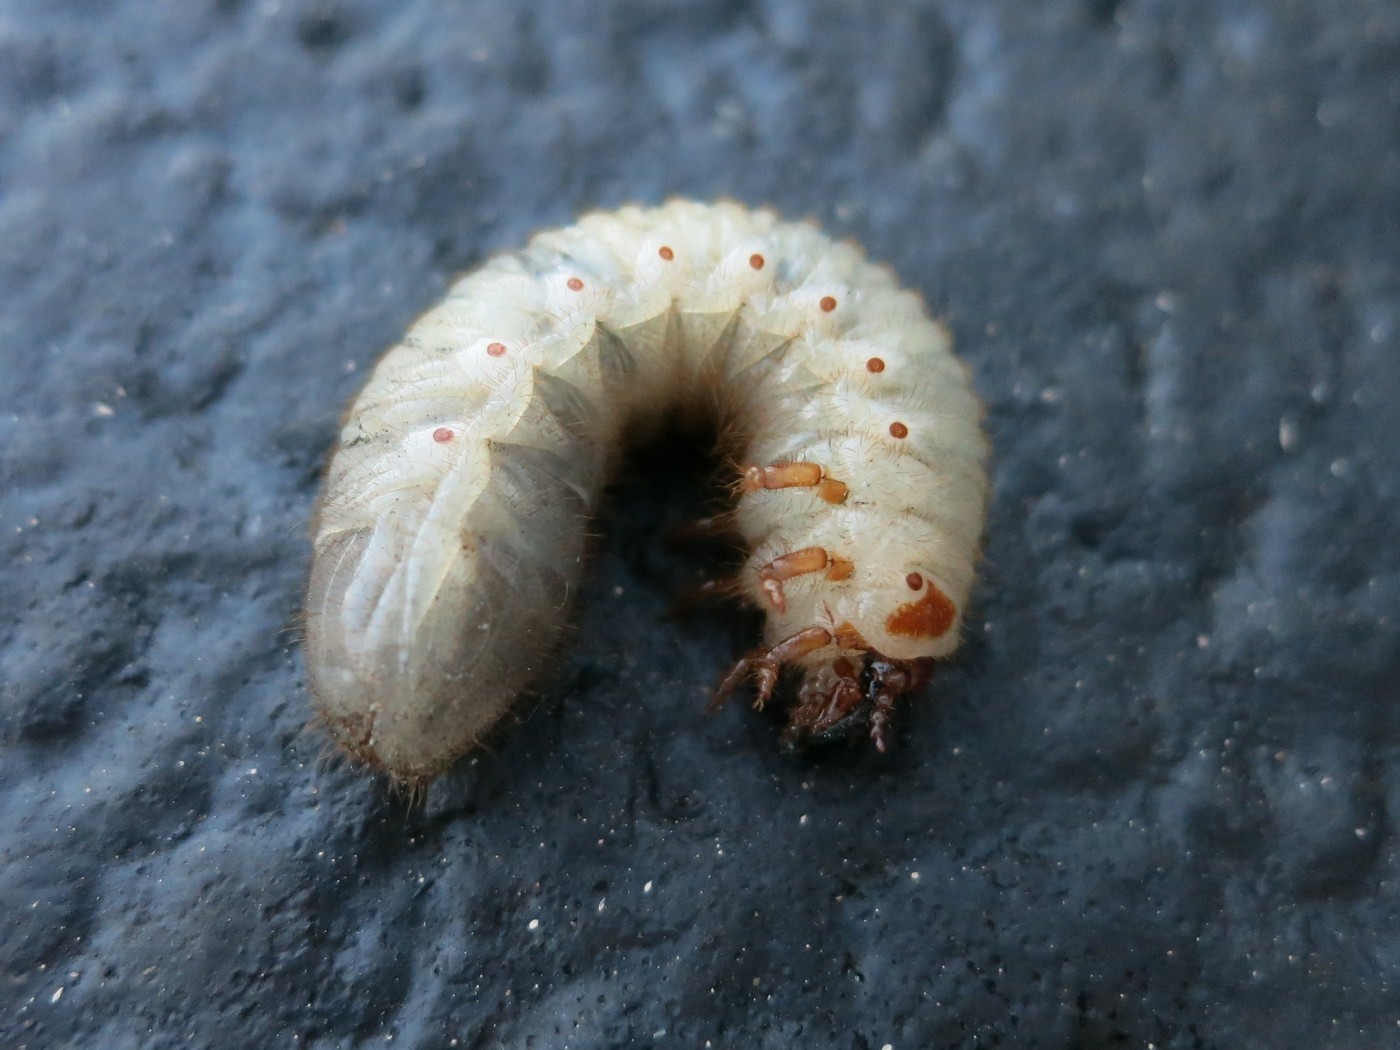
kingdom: Animalia
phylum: Arthropoda
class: Insecta
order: Coleoptera
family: Scarabaeidae
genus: Cotinis
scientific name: Cotinis nitida
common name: Common green june beetle
